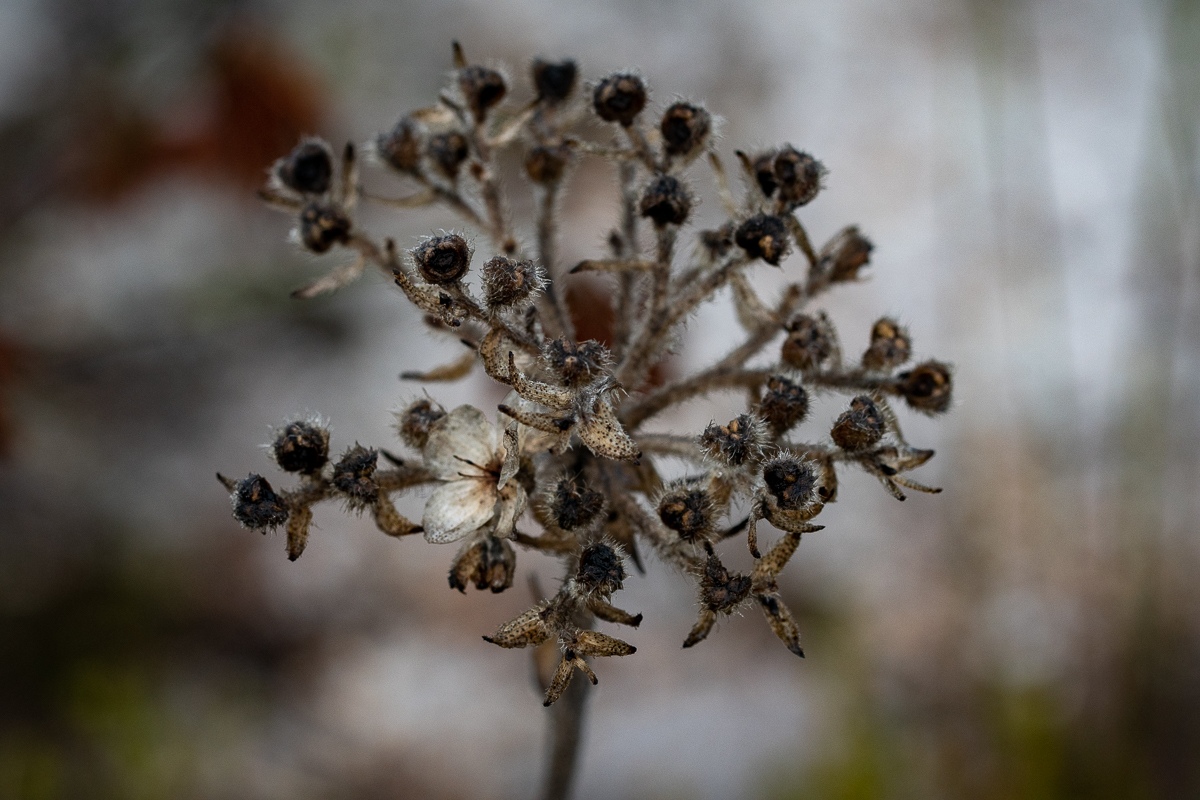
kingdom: Plantae
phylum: Tracheophyta
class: Liliopsida
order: Commelinales
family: Haemodoraceae
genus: Dilatris
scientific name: Dilatris pillansii
